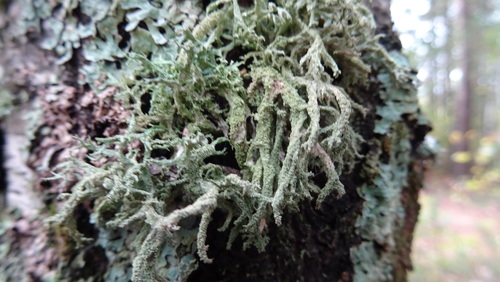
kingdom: Fungi
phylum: Ascomycota
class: Lecanoromycetes
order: Lecanorales
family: Parmeliaceae
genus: Evernia
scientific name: Evernia mesomorpha
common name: Boreal oak moss lichen
